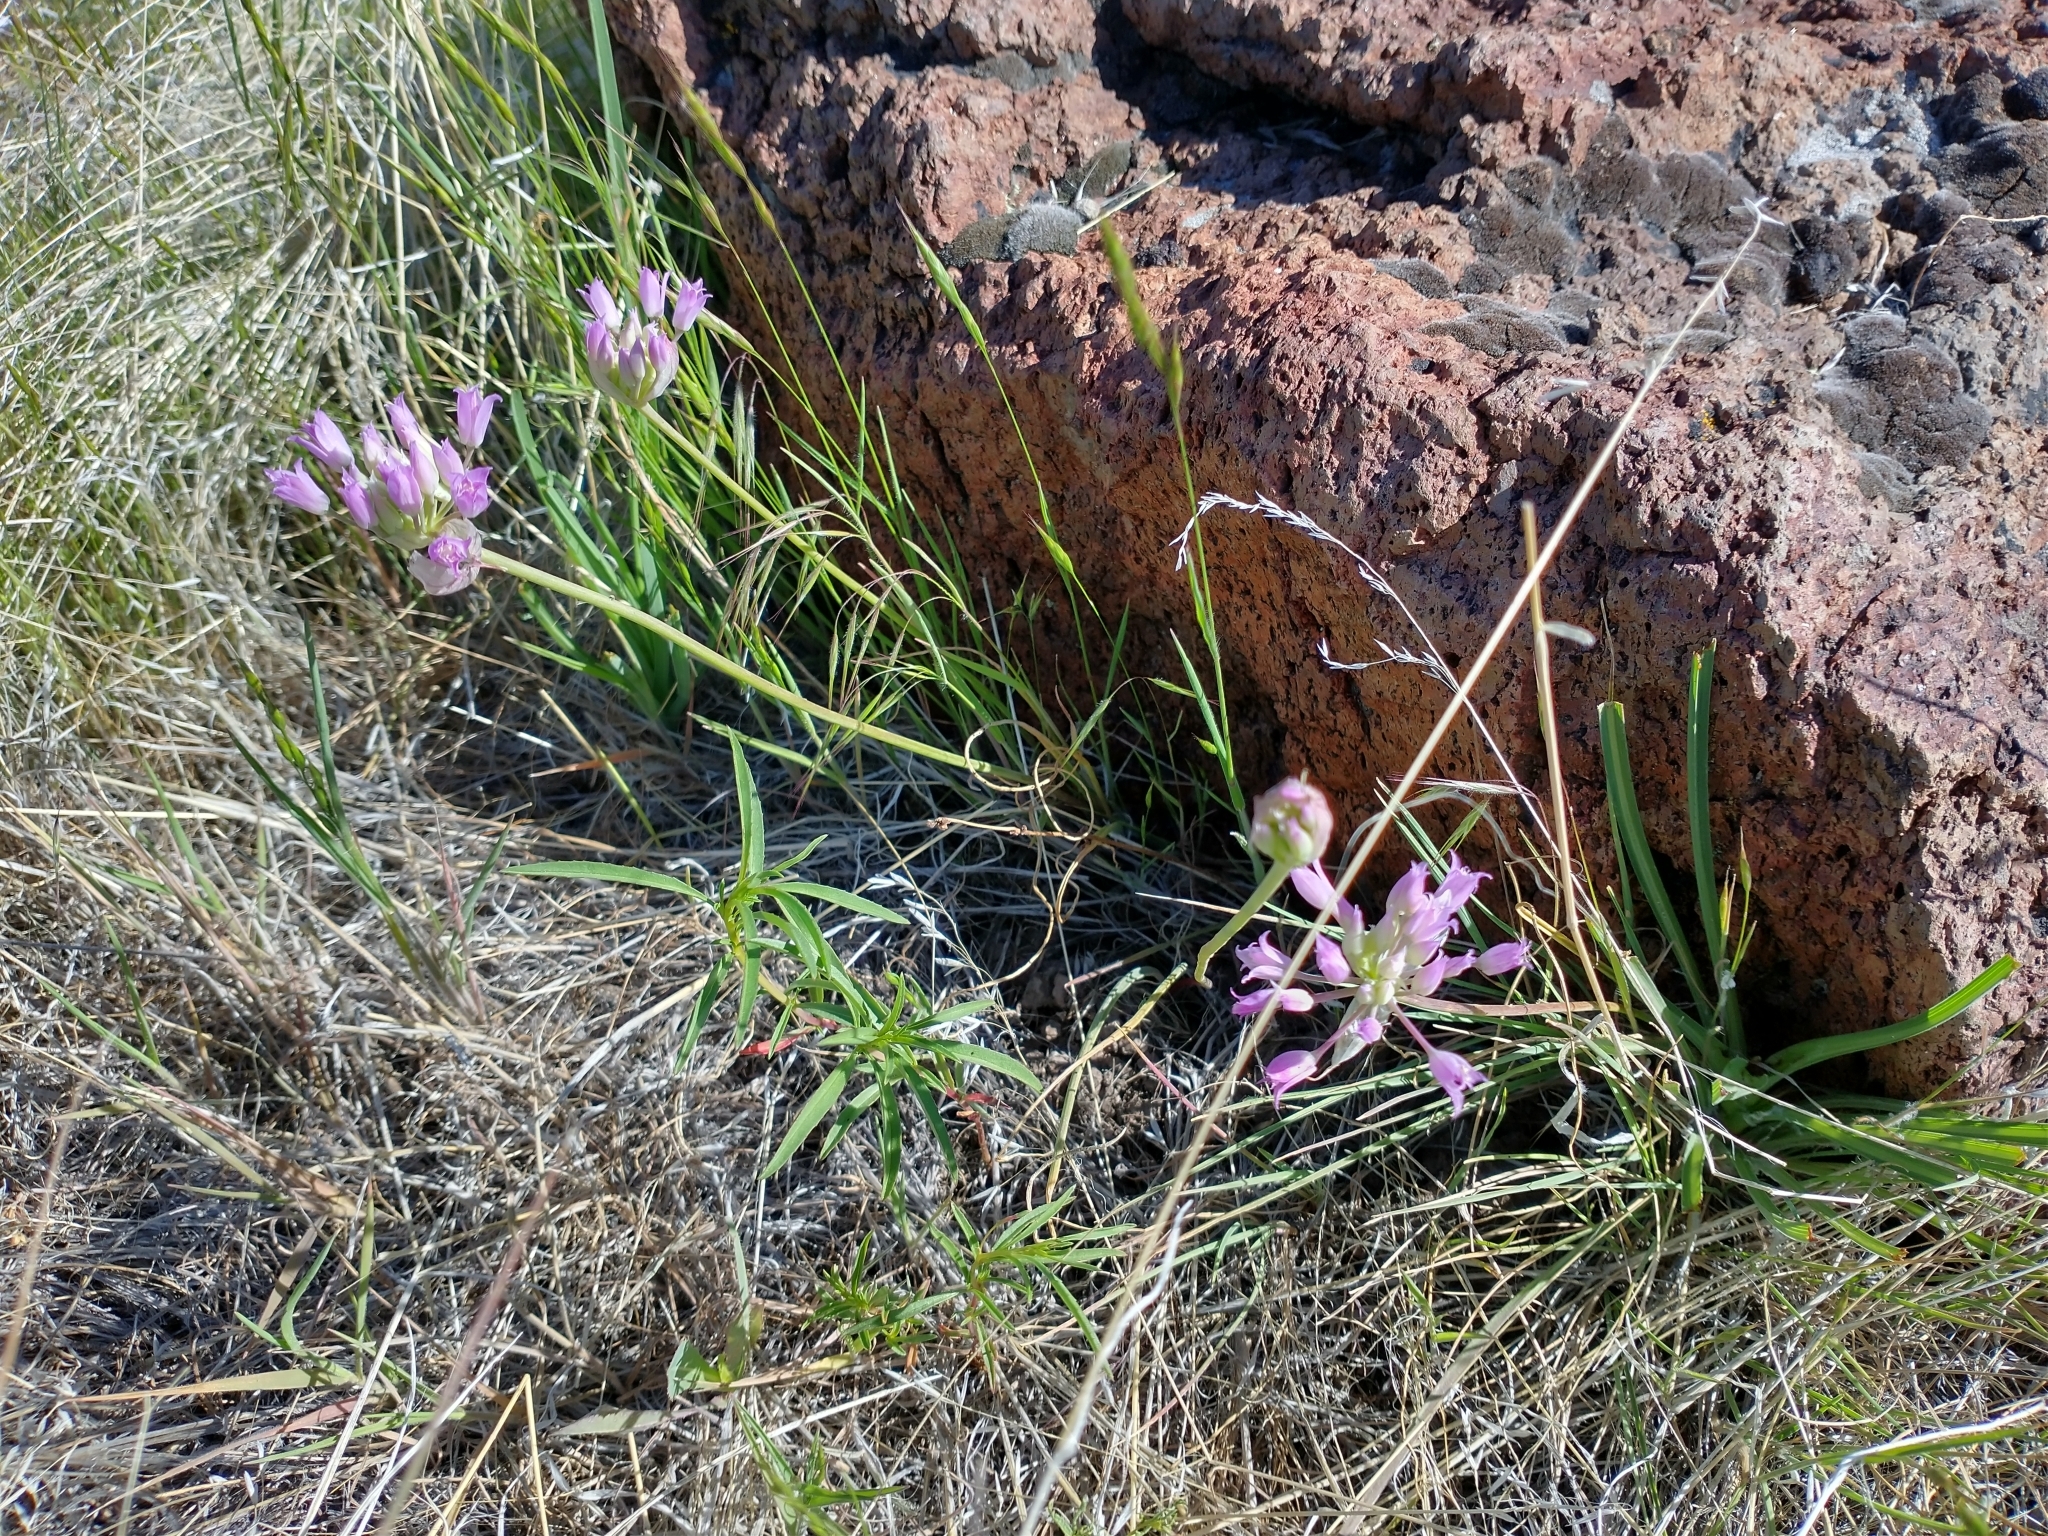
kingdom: Plantae
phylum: Tracheophyta
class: Liliopsida
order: Asparagales
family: Amaryllidaceae
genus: Allium
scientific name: Allium acuminatum
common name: Hooker's onion
